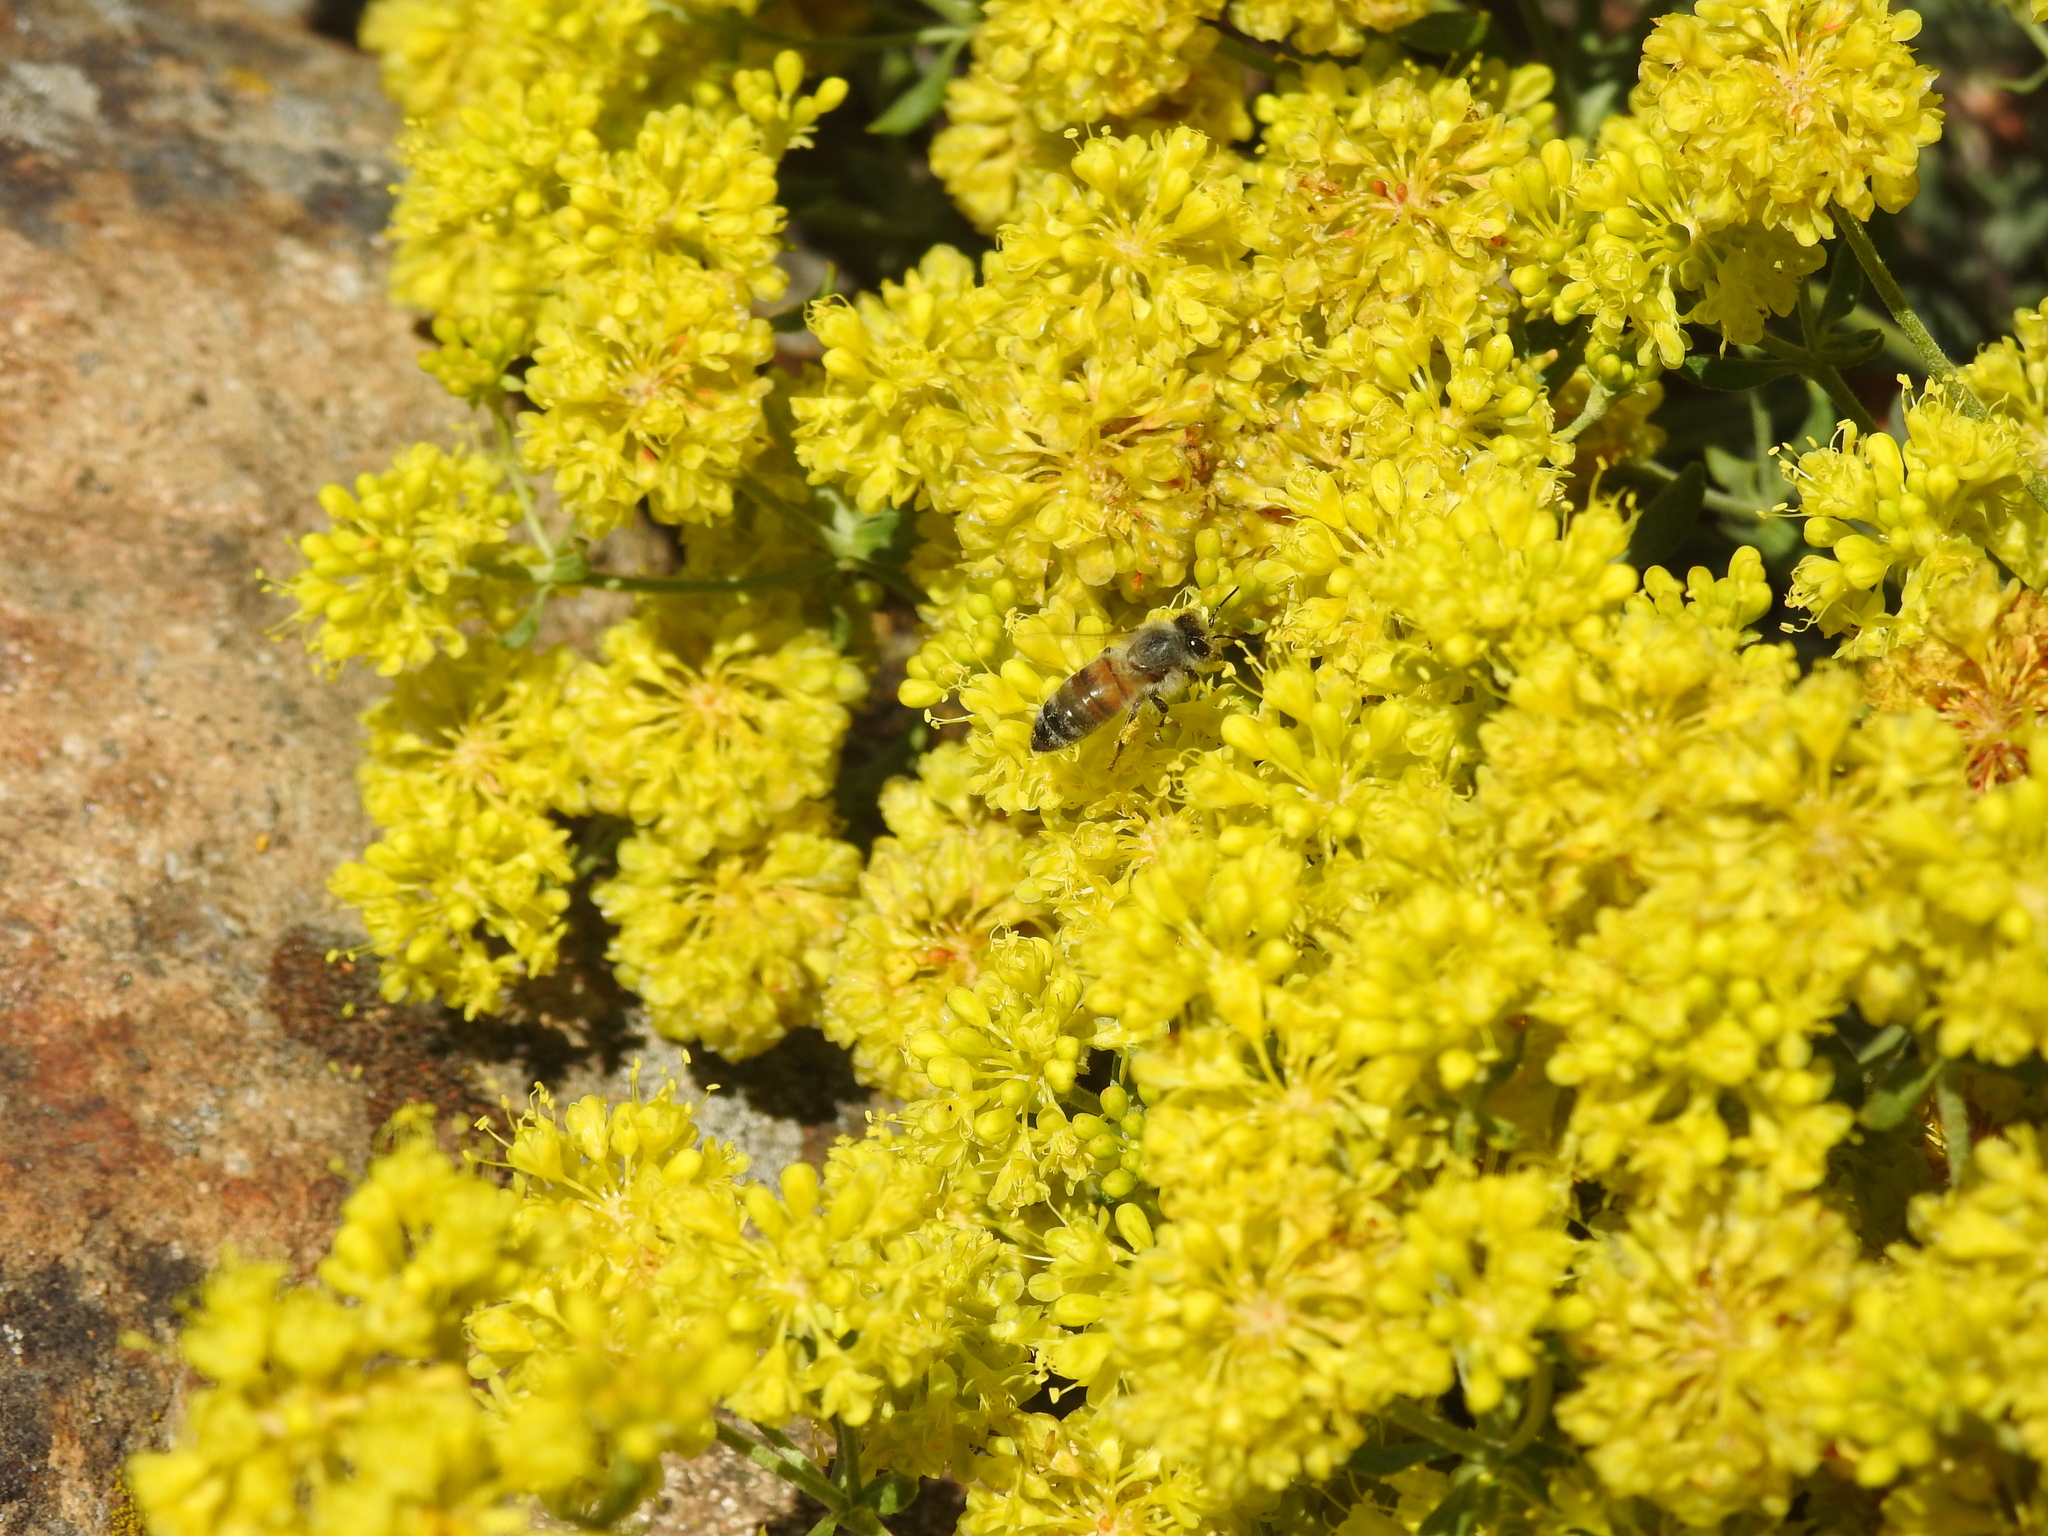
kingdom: Animalia
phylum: Arthropoda
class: Insecta
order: Hymenoptera
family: Apidae
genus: Apis
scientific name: Apis mellifera
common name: Honey bee
